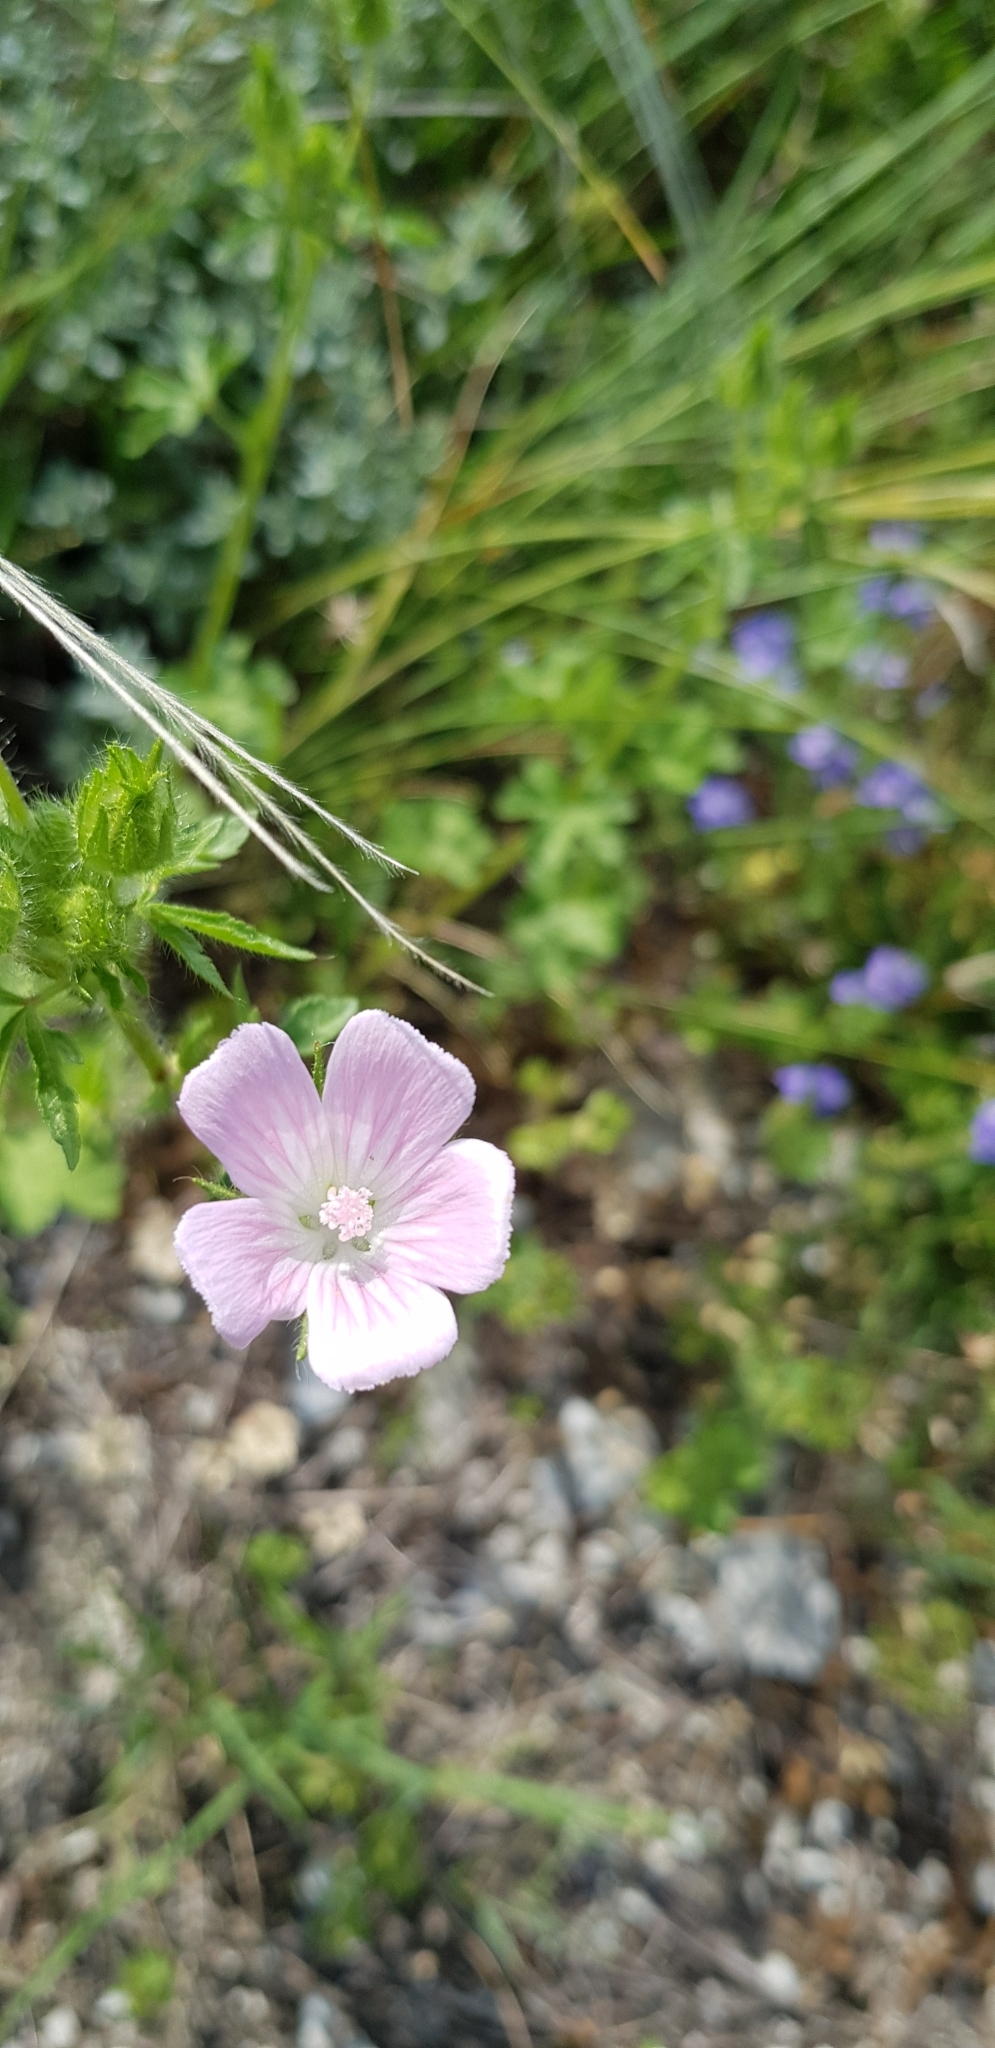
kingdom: Plantae
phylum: Tracheophyta
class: Magnoliopsida
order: Malvales
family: Malvaceae
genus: Althaea
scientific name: Althaea hirsuta
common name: Rough marsh-mallow
